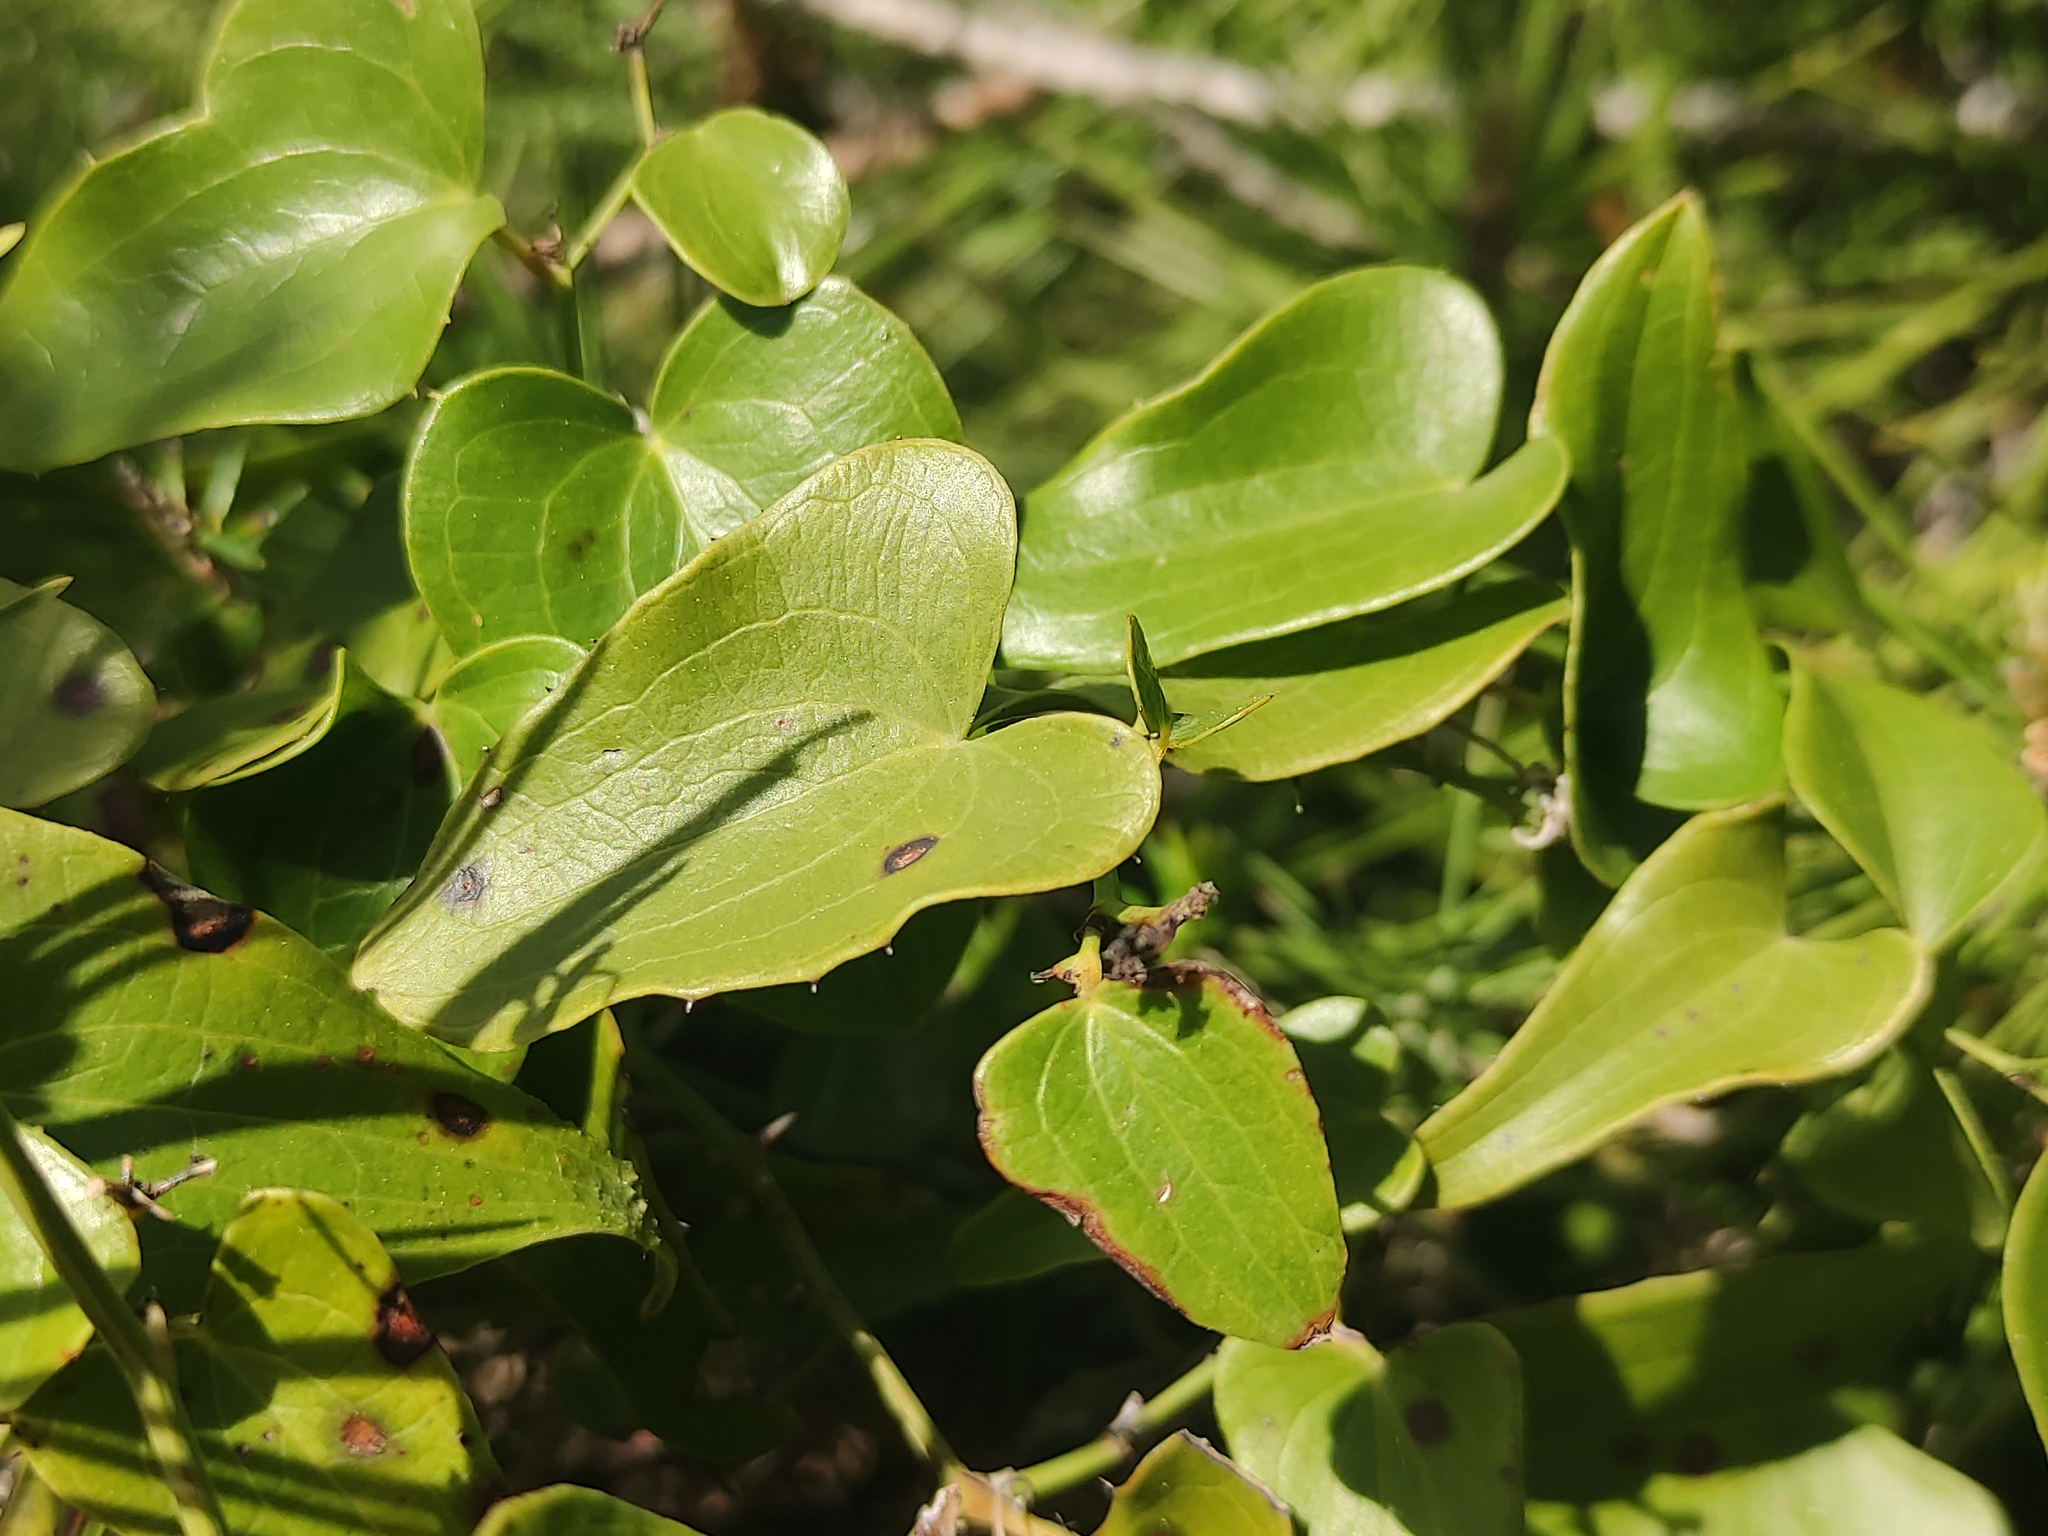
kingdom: Plantae
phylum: Tracheophyta
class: Liliopsida
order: Liliales
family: Smilacaceae
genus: Smilax
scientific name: Smilax aspera
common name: Common smilax
